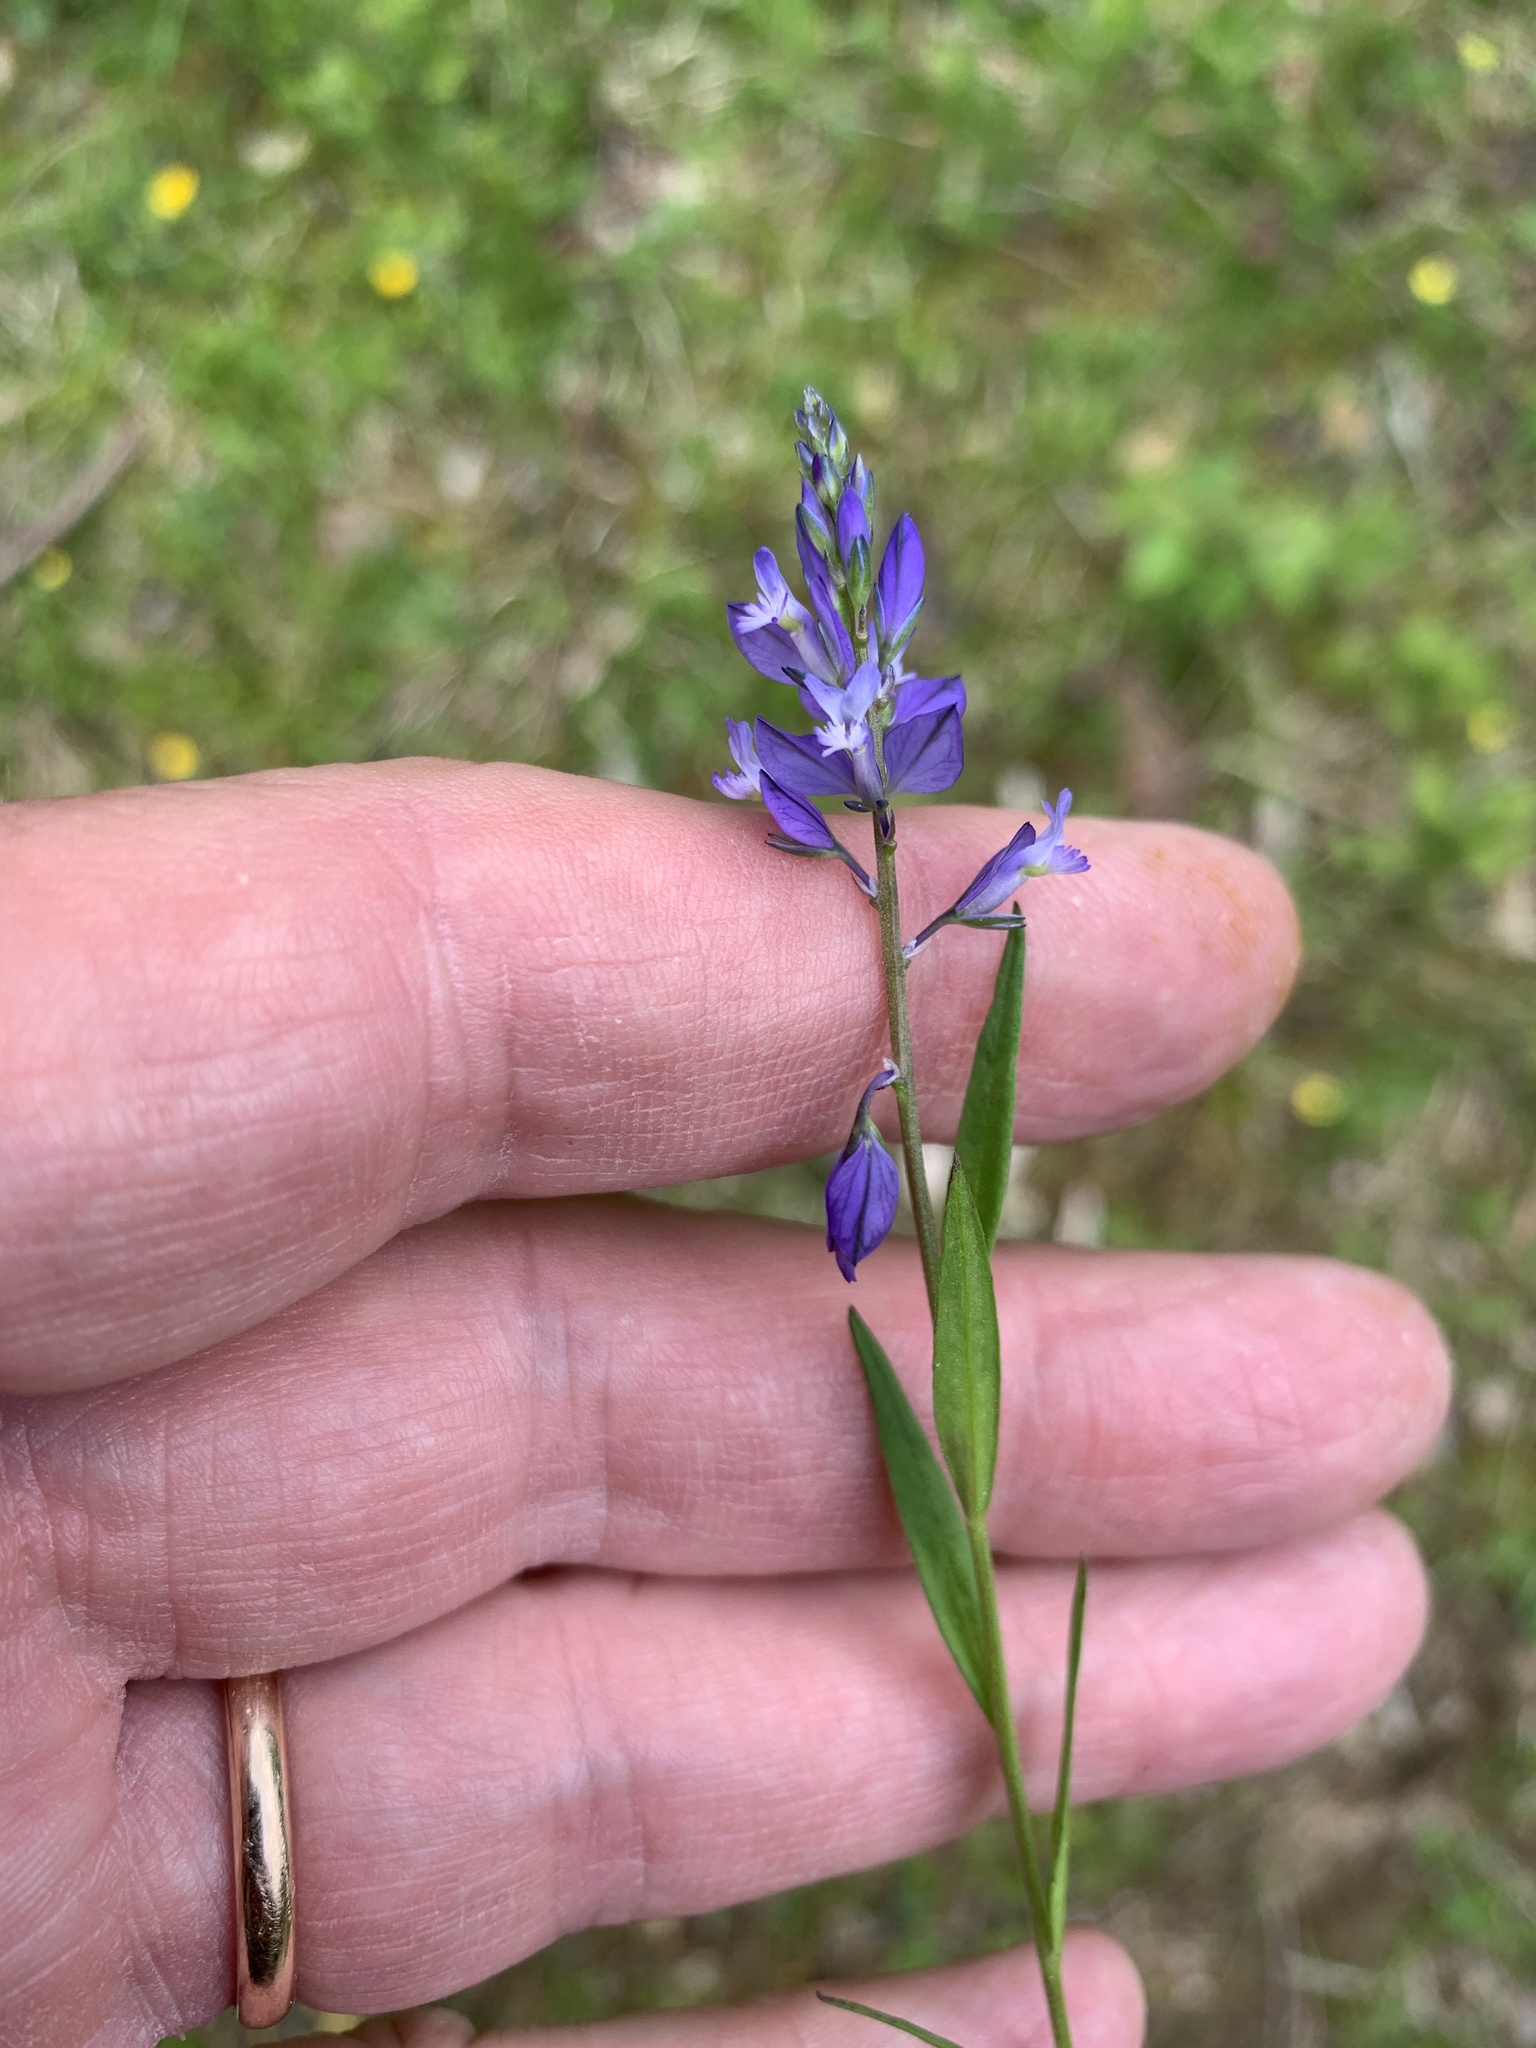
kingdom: Plantae
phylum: Tracheophyta
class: Magnoliopsida
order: Fabales
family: Polygalaceae
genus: Polygala
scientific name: Polygala vulgaris
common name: Common milkwort
